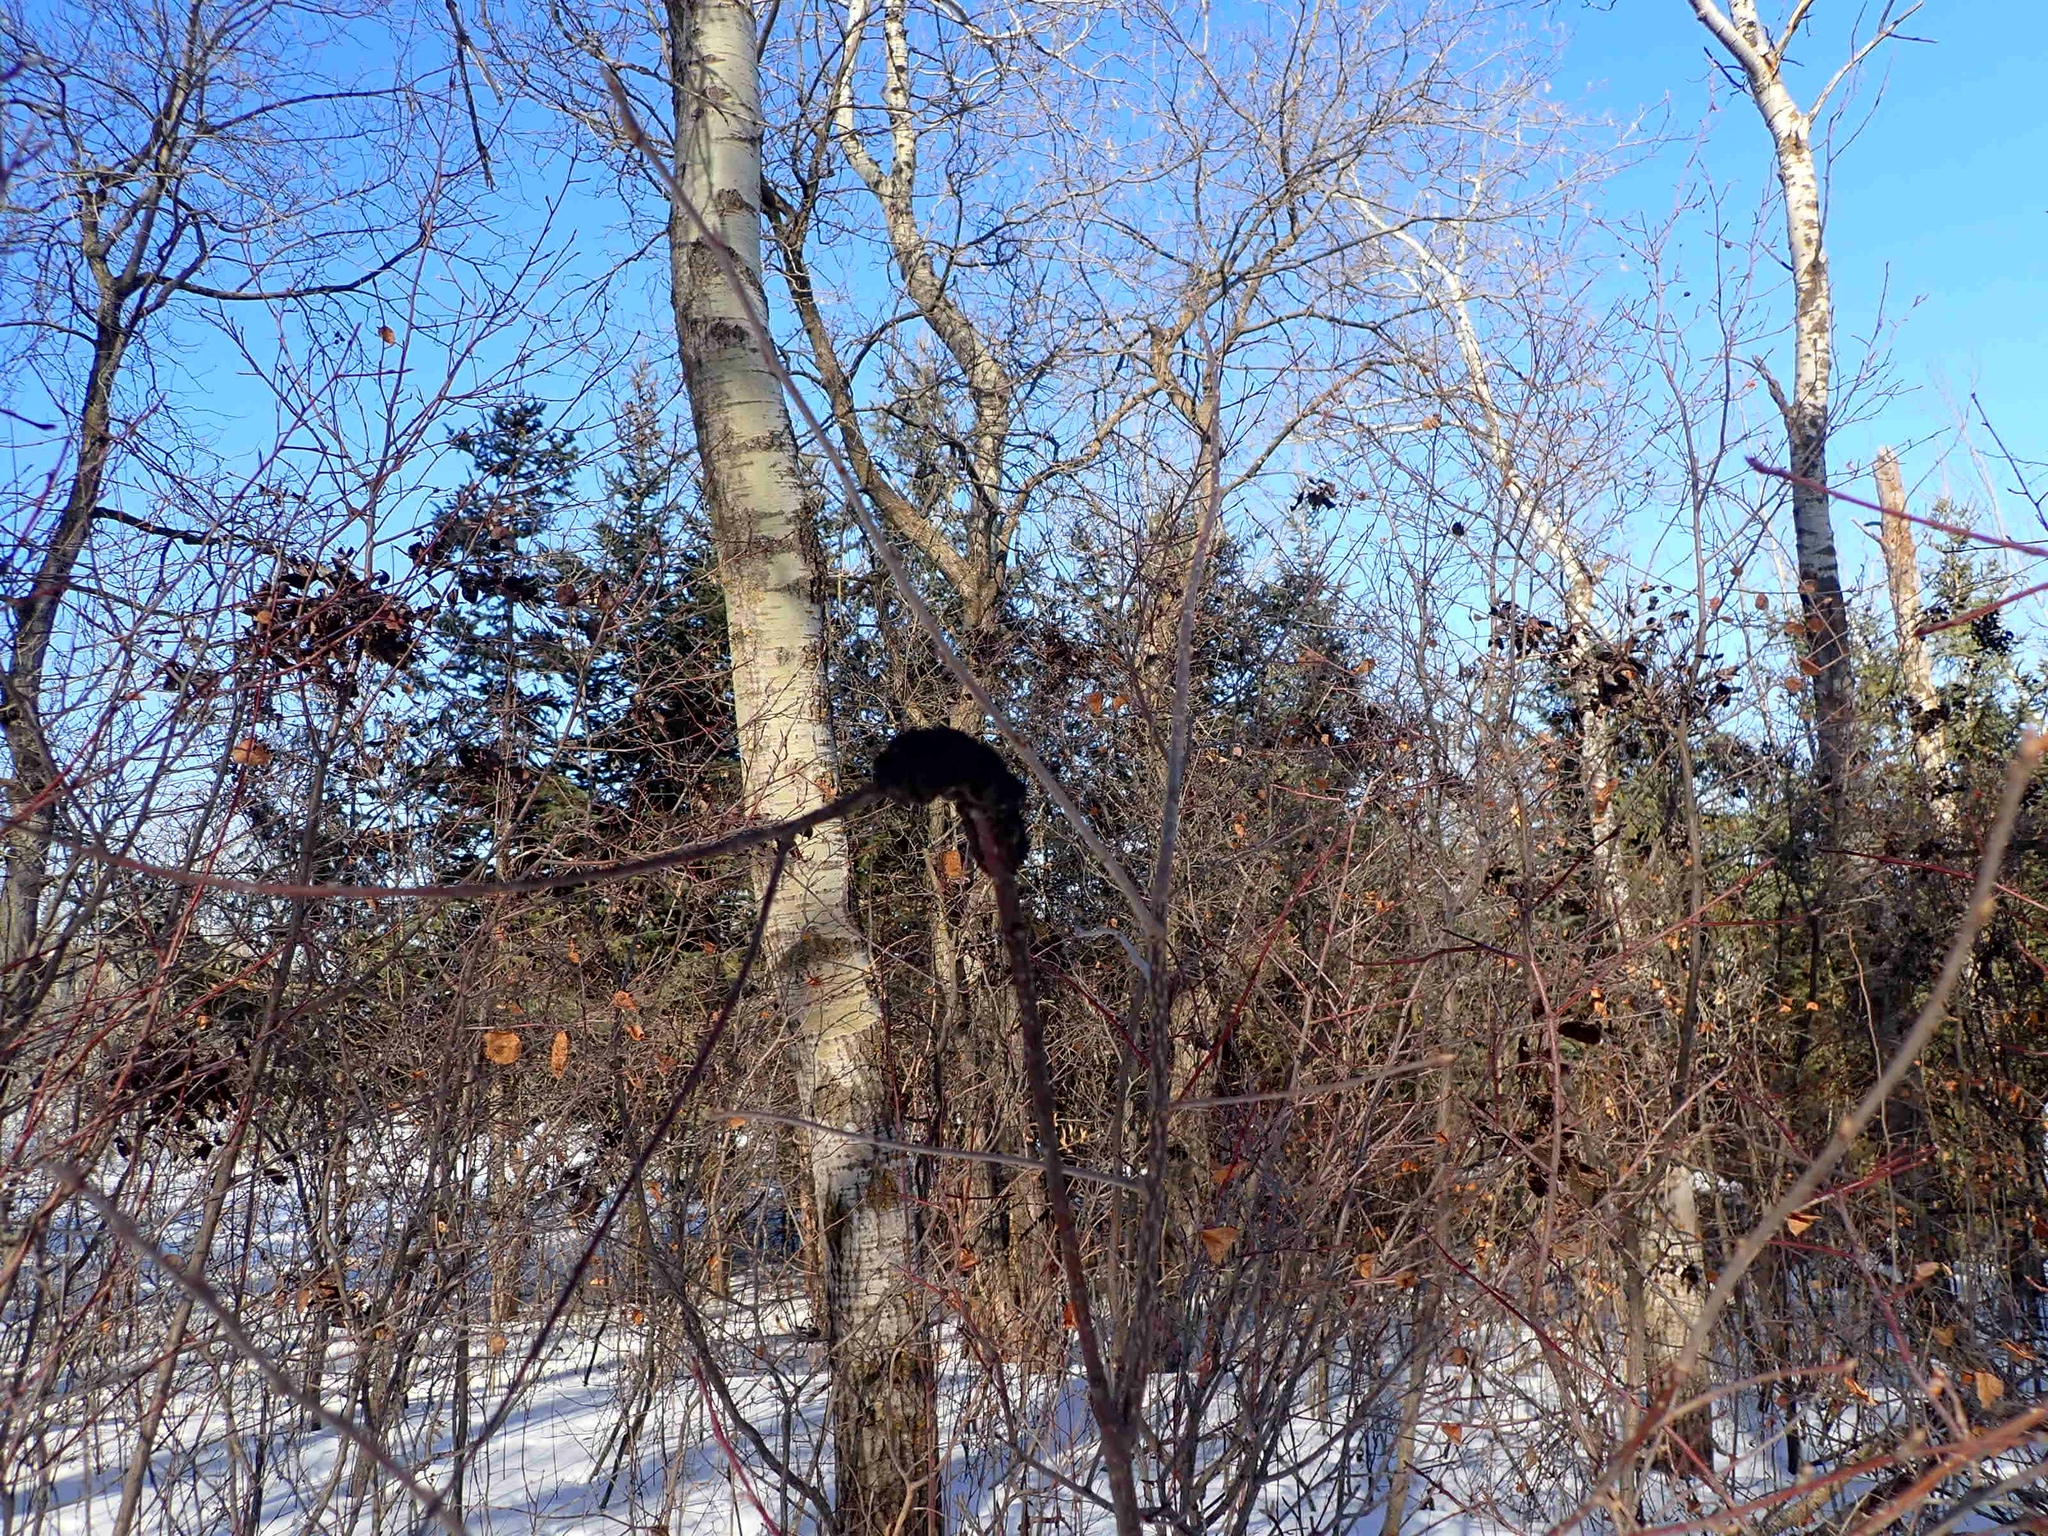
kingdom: Fungi
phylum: Ascomycota
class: Dothideomycetes
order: Venturiales
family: Venturiaceae
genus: Apiosporina
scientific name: Apiosporina morbosa
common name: Black knot
